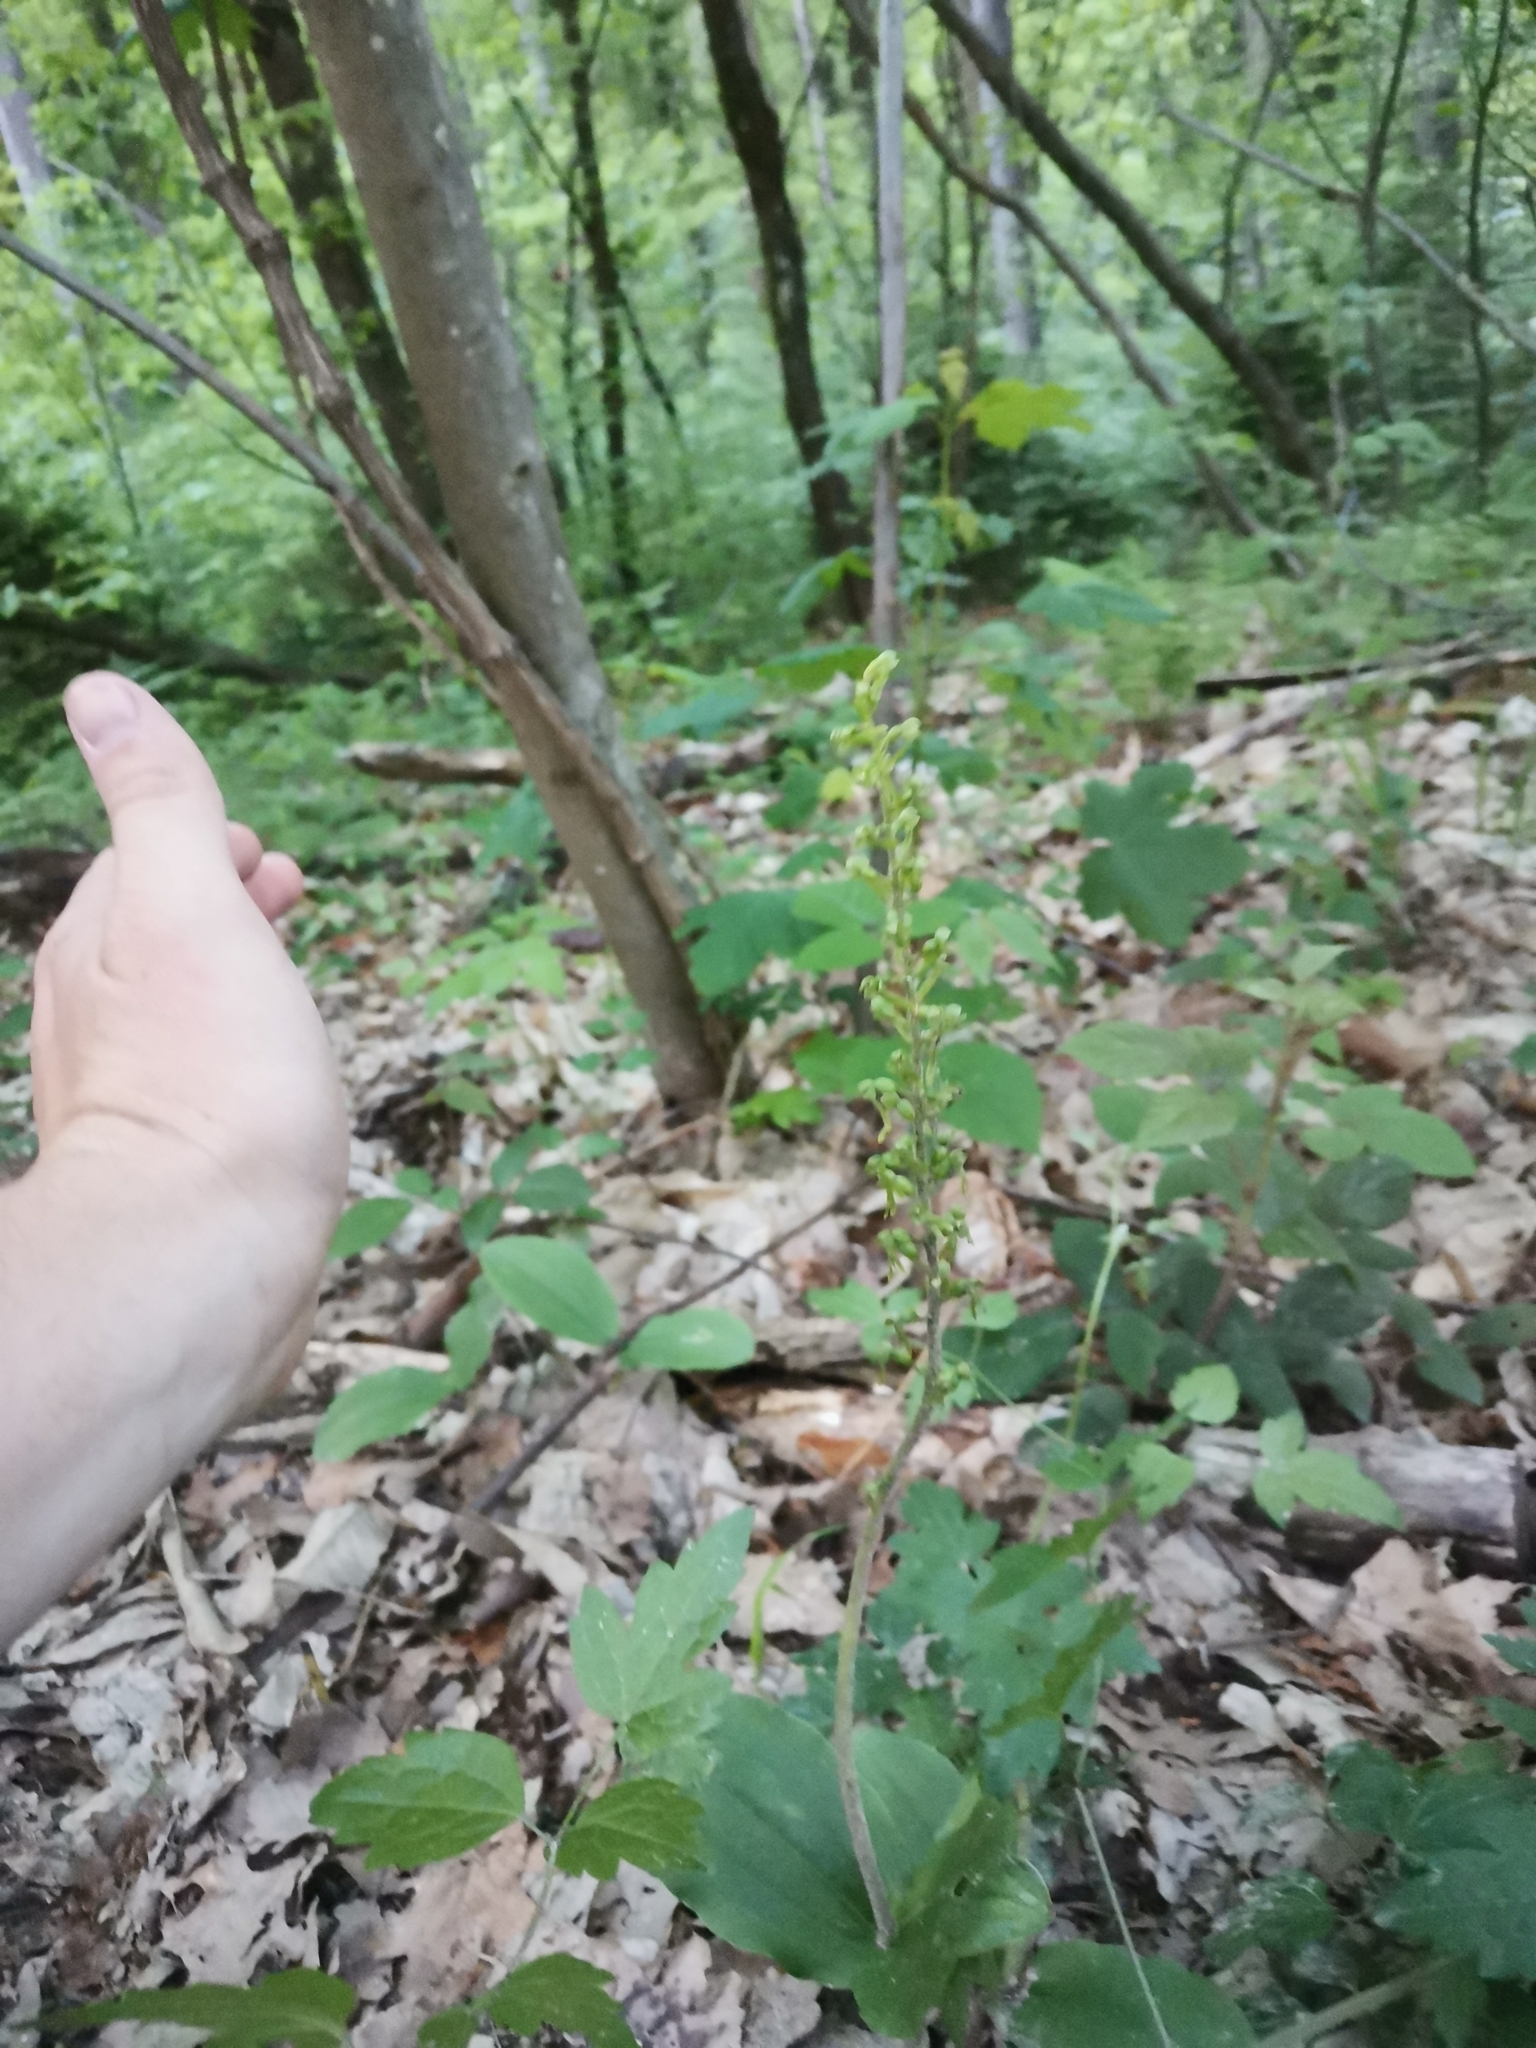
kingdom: Plantae
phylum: Tracheophyta
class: Liliopsida
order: Asparagales
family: Orchidaceae
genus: Neottia
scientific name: Neottia ovata
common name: Common twayblade
